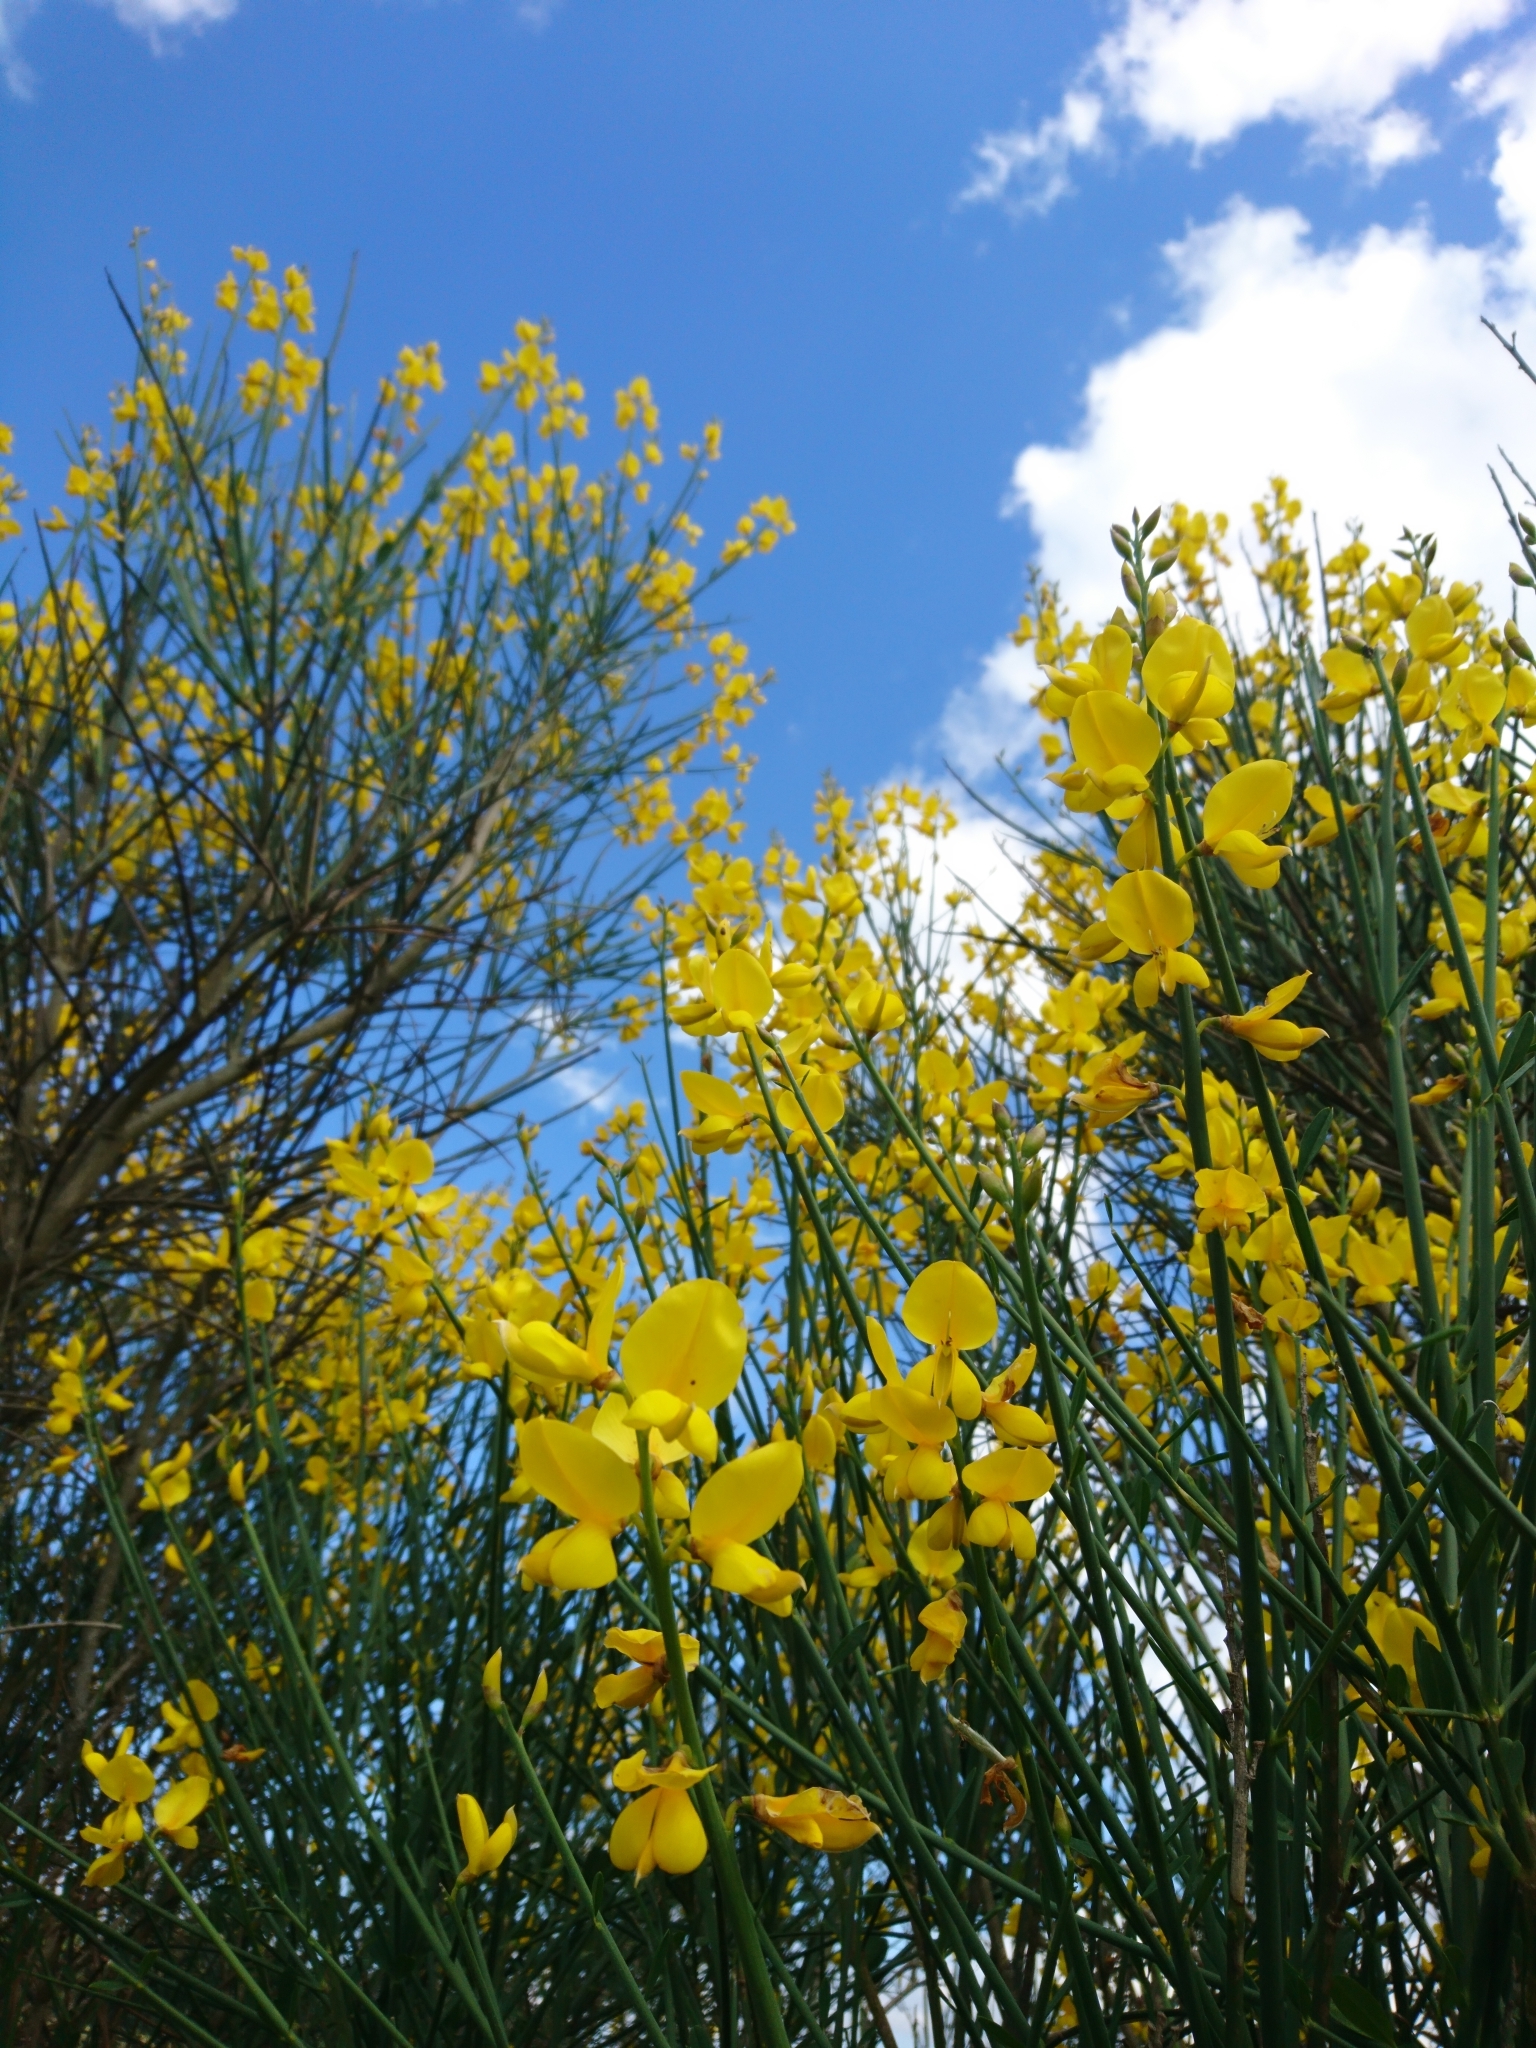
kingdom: Plantae
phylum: Tracheophyta
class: Magnoliopsida
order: Fabales
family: Fabaceae
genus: Spartium
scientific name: Spartium junceum
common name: Spanish broom
